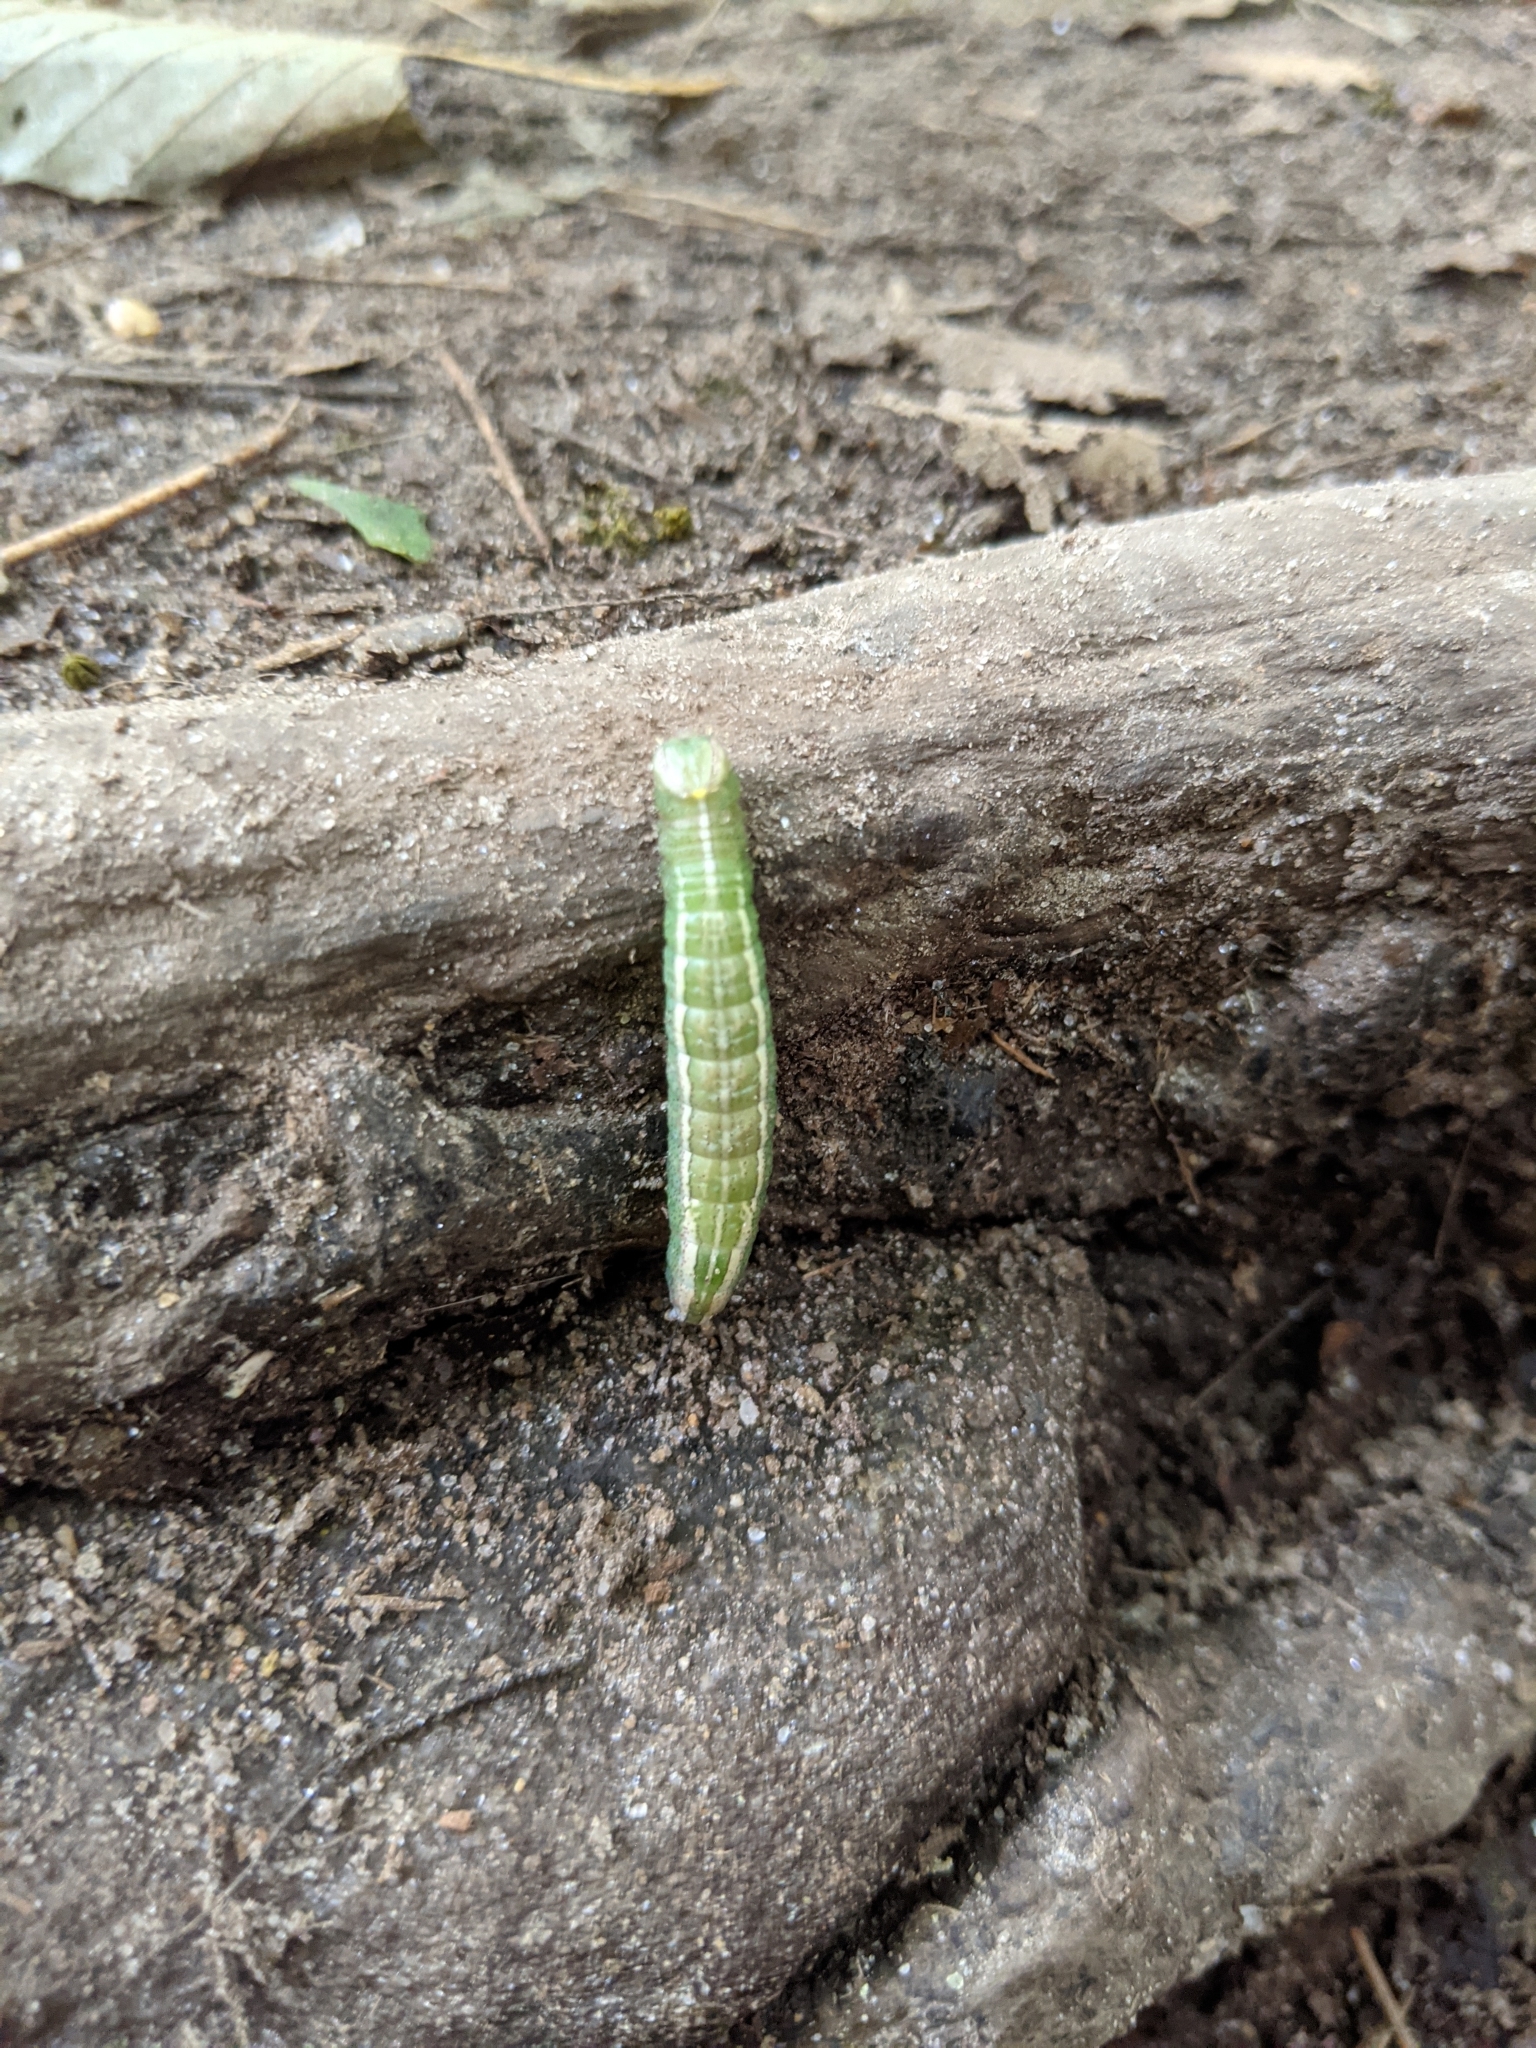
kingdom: Animalia
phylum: Arthropoda
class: Insecta
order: Lepidoptera
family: Notodontidae
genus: Disphragis
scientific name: Disphragis Cecrita guttivitta
